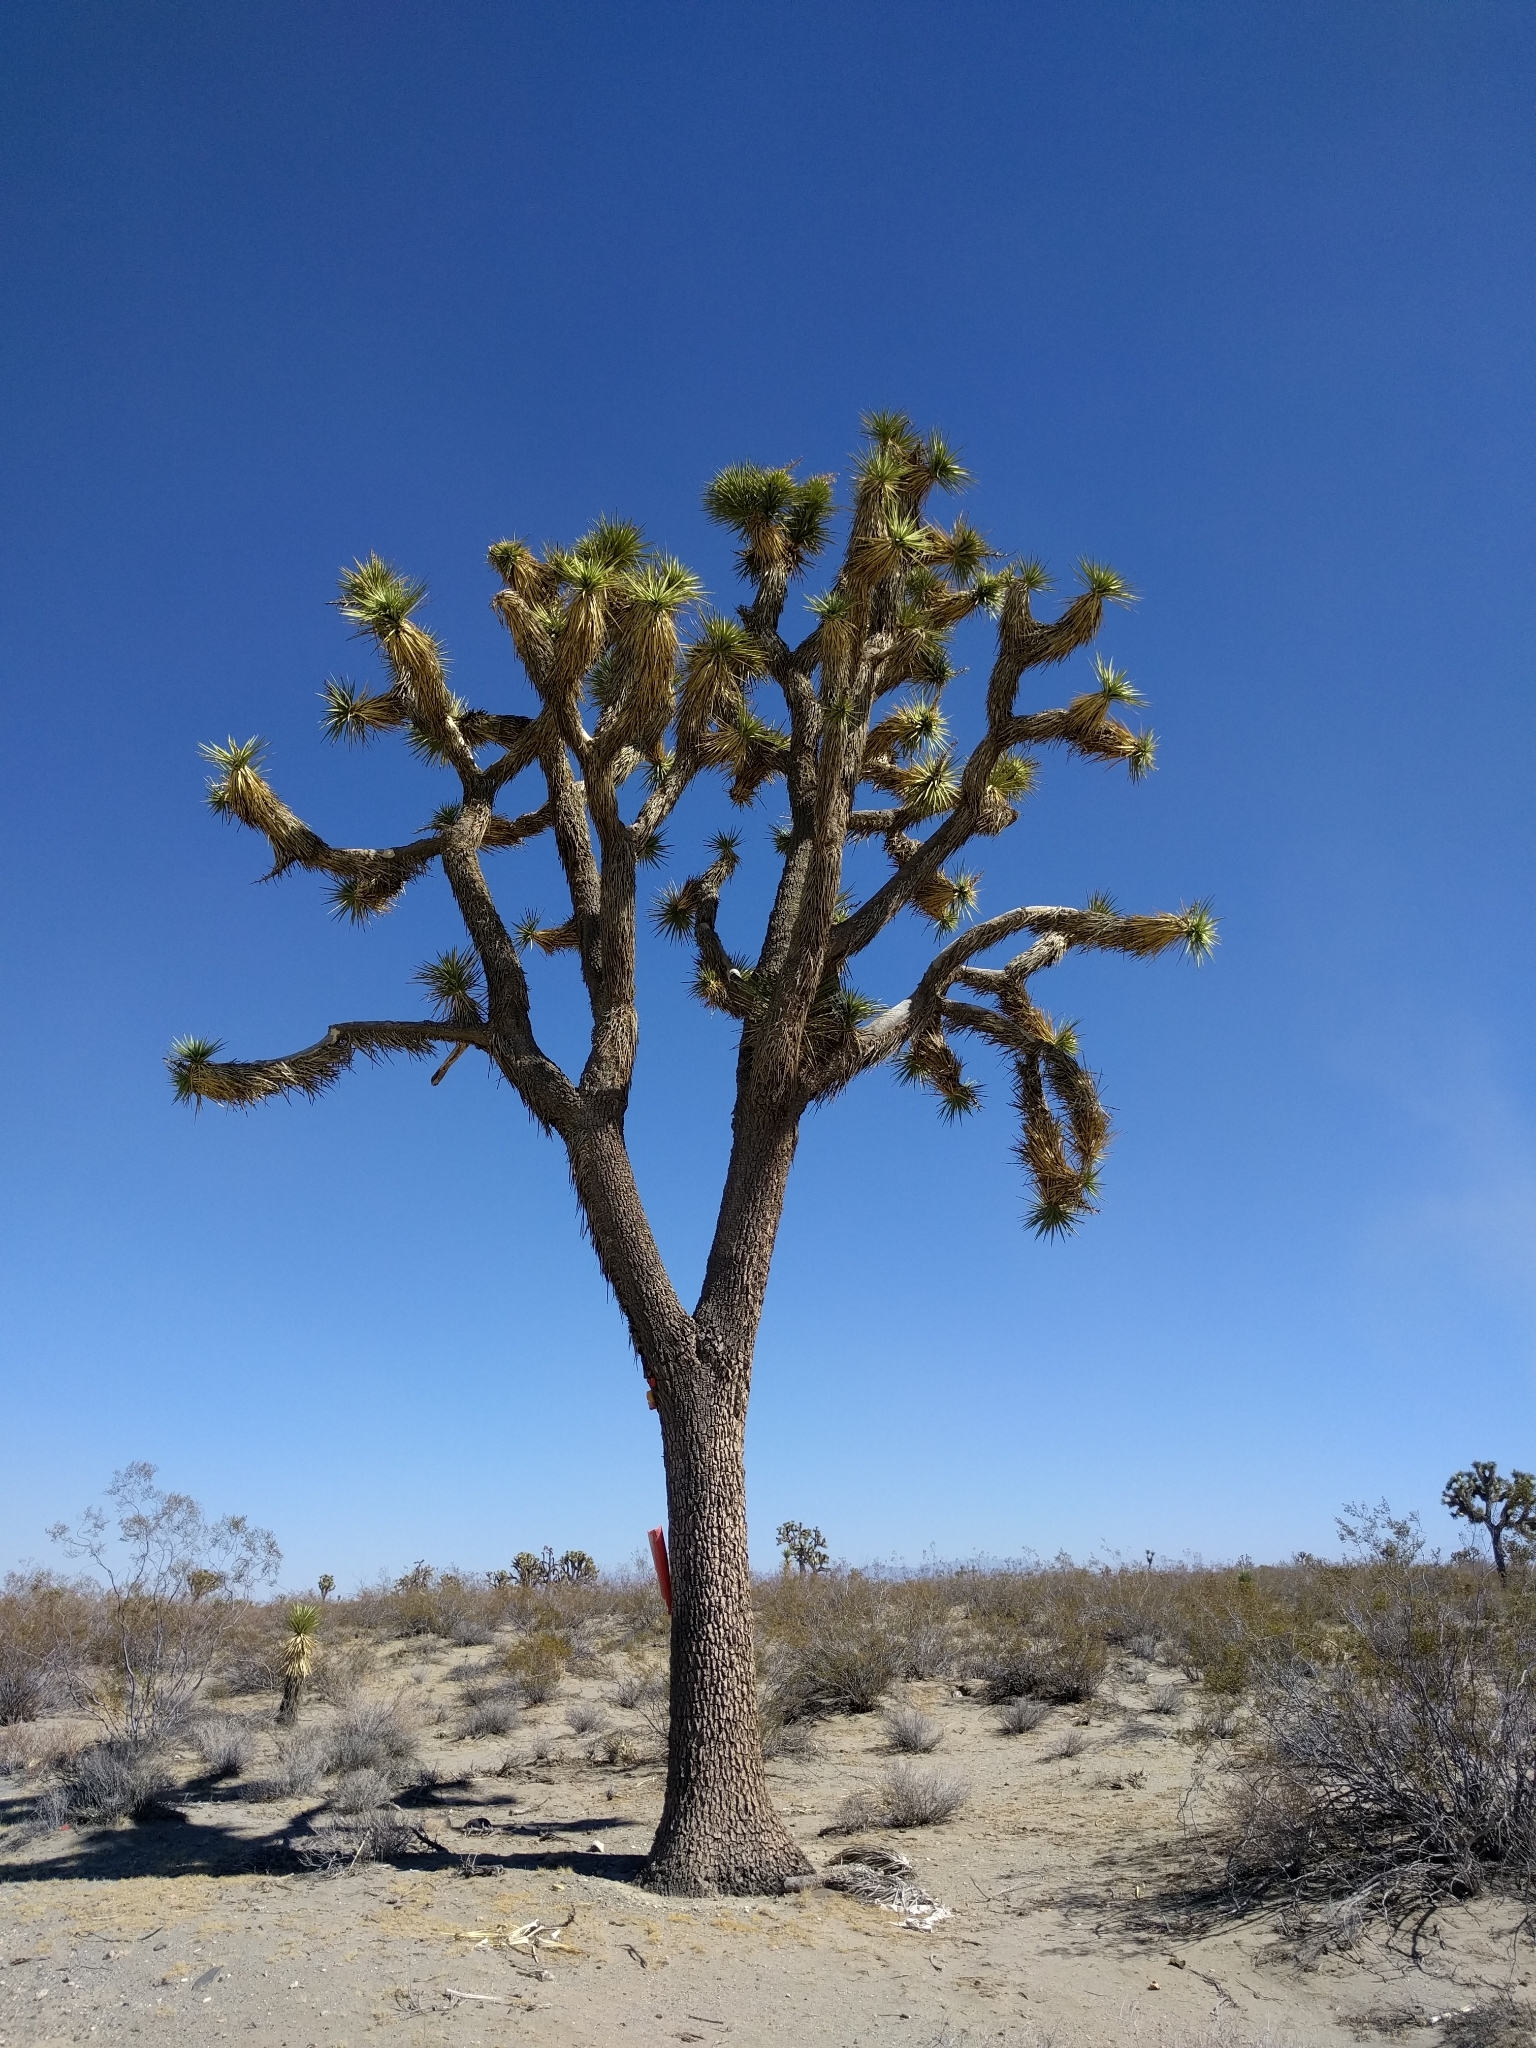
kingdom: Plantae
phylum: Tracheophyta
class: Liliopsida
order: Asparagales
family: Asparagaceae
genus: Yucca
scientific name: Yucca brevifolia
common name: Joshua tree
